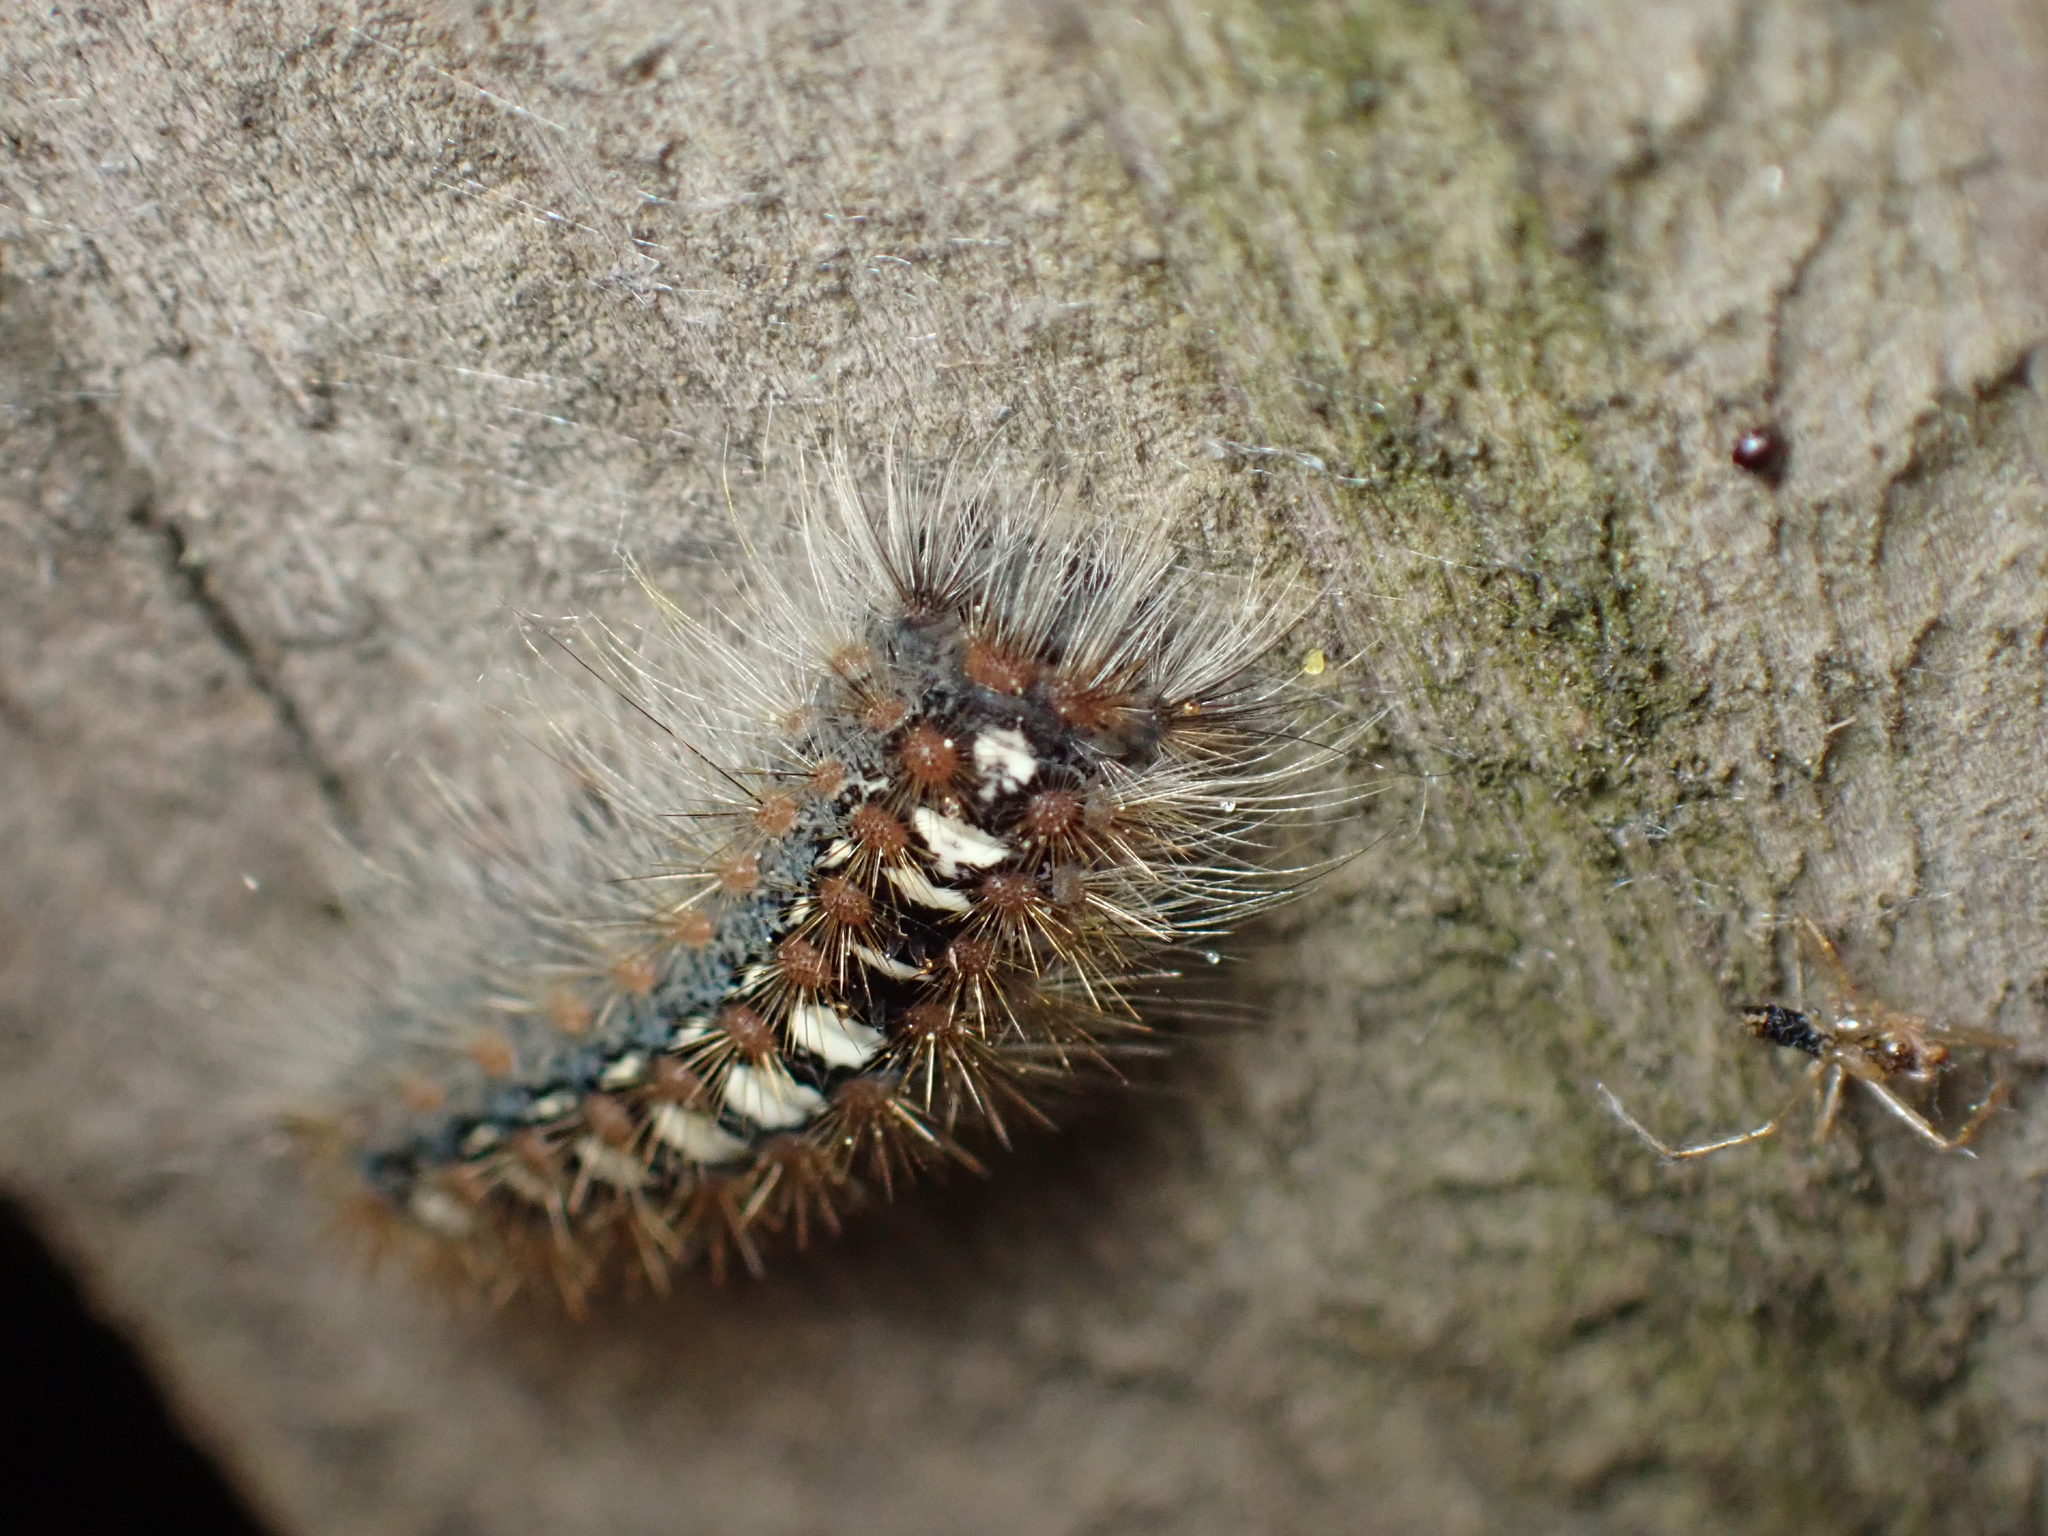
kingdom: Animalia
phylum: Arthropoda
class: Insecta
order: Lepidoptera
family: Erebidae
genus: Leucoma
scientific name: Leucoma salicis
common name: White satin moth
